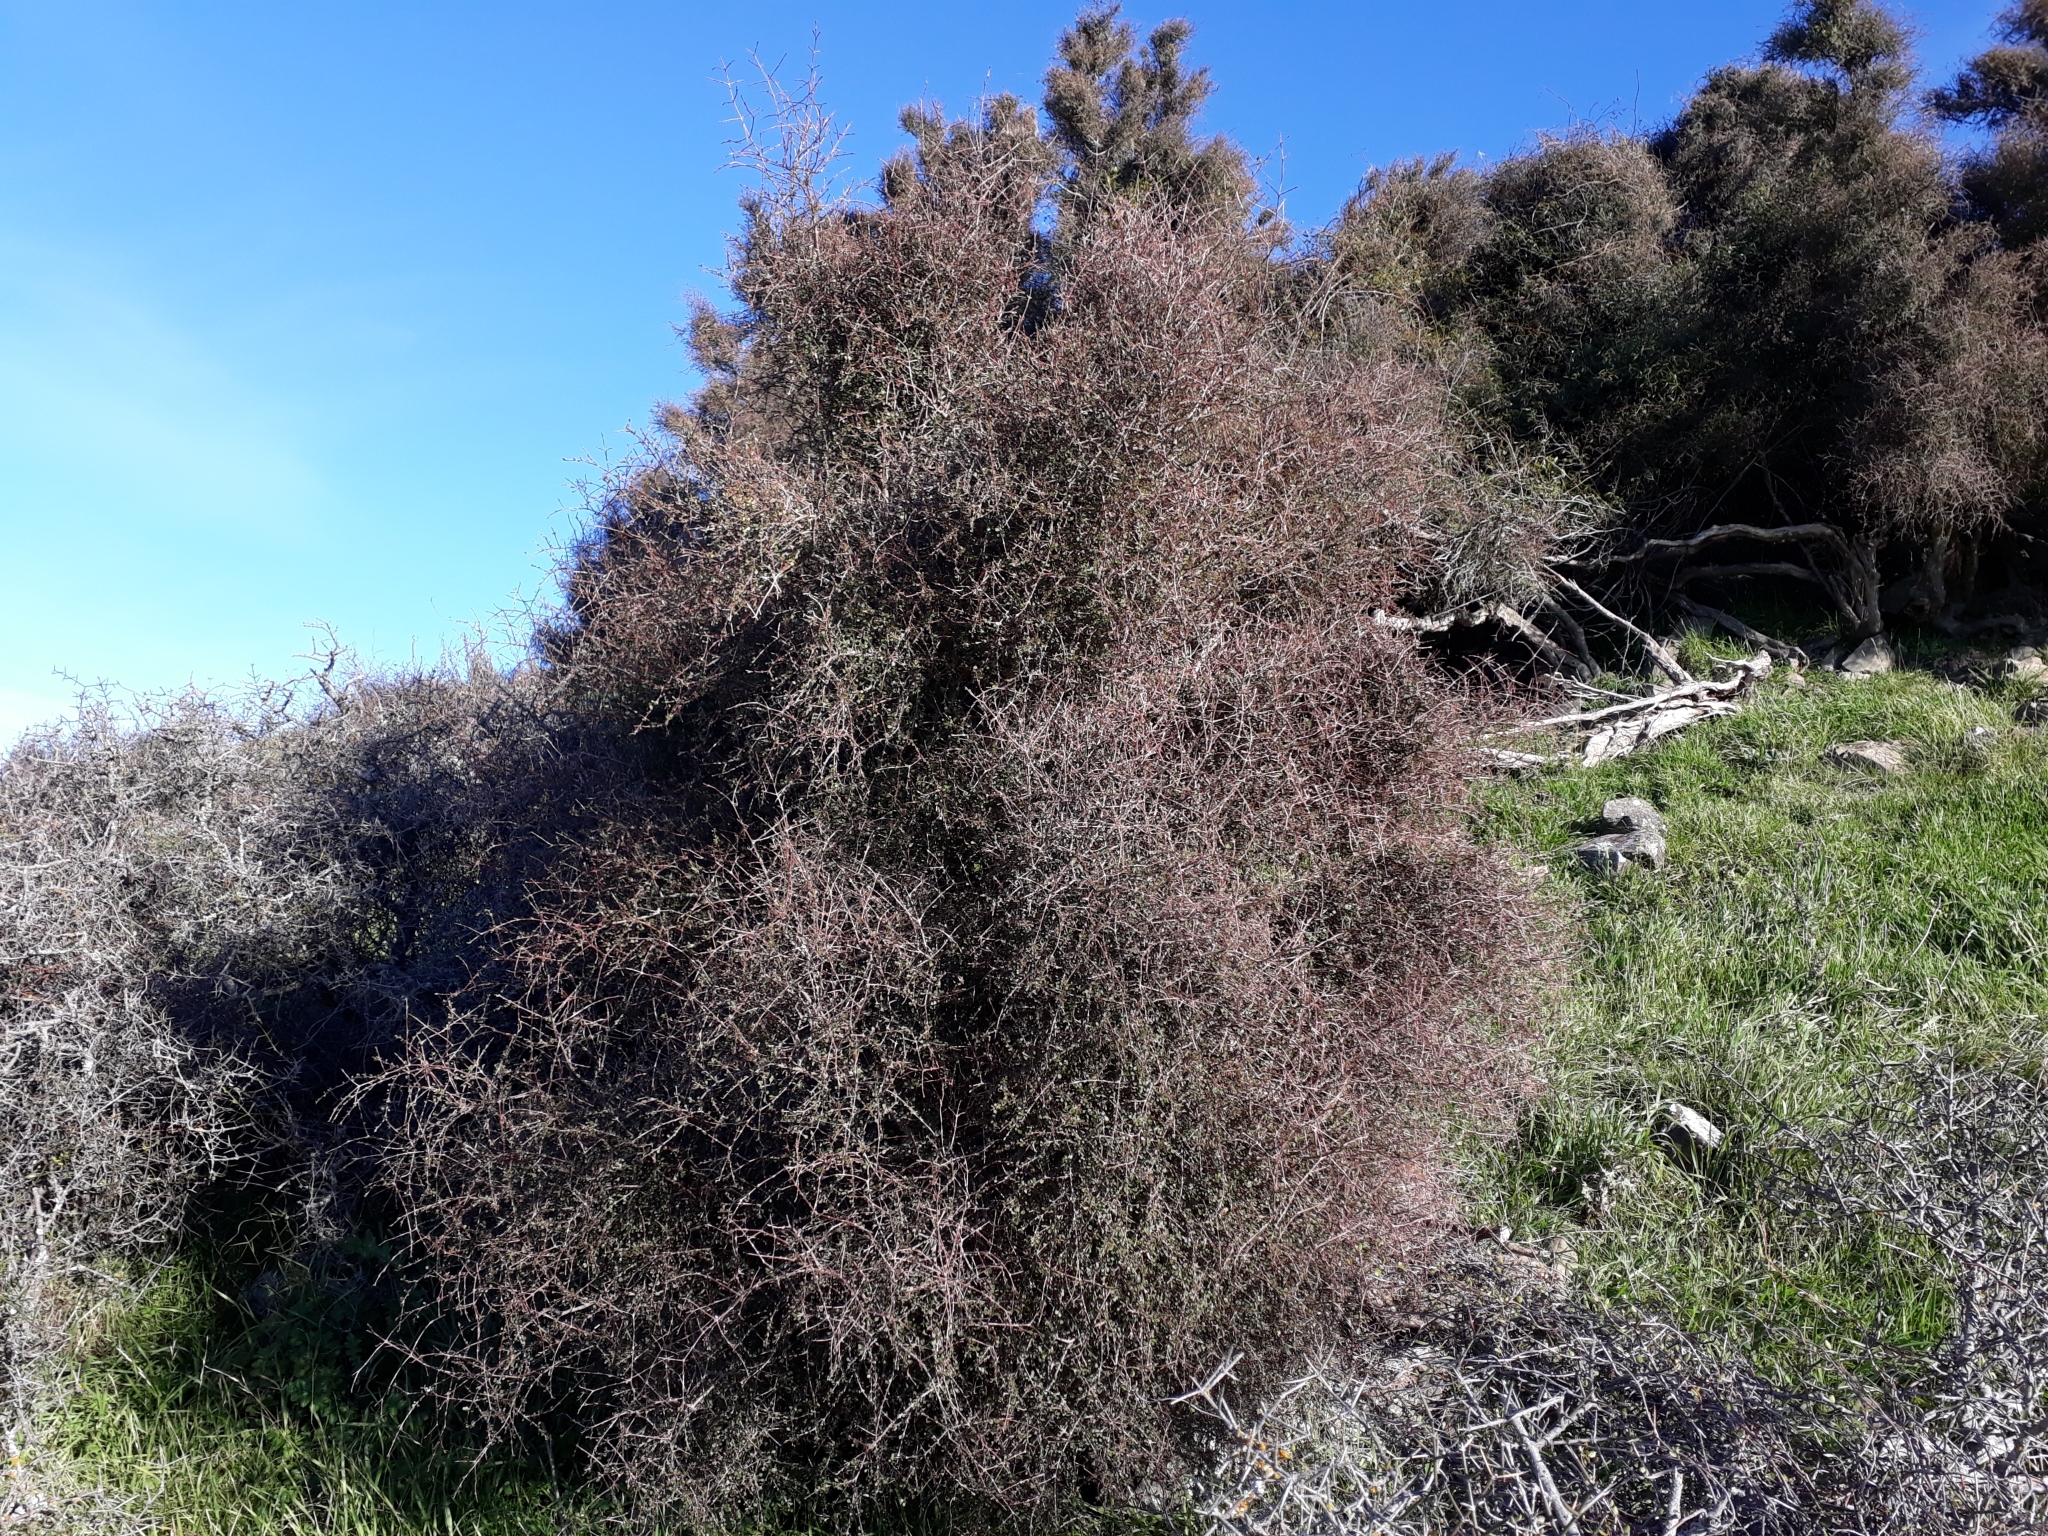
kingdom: Plantae
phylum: Tracheophyta
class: Magnoliopsida
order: Gentianales
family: Rubiaceae
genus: Coprosma
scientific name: Coprosma virescens
